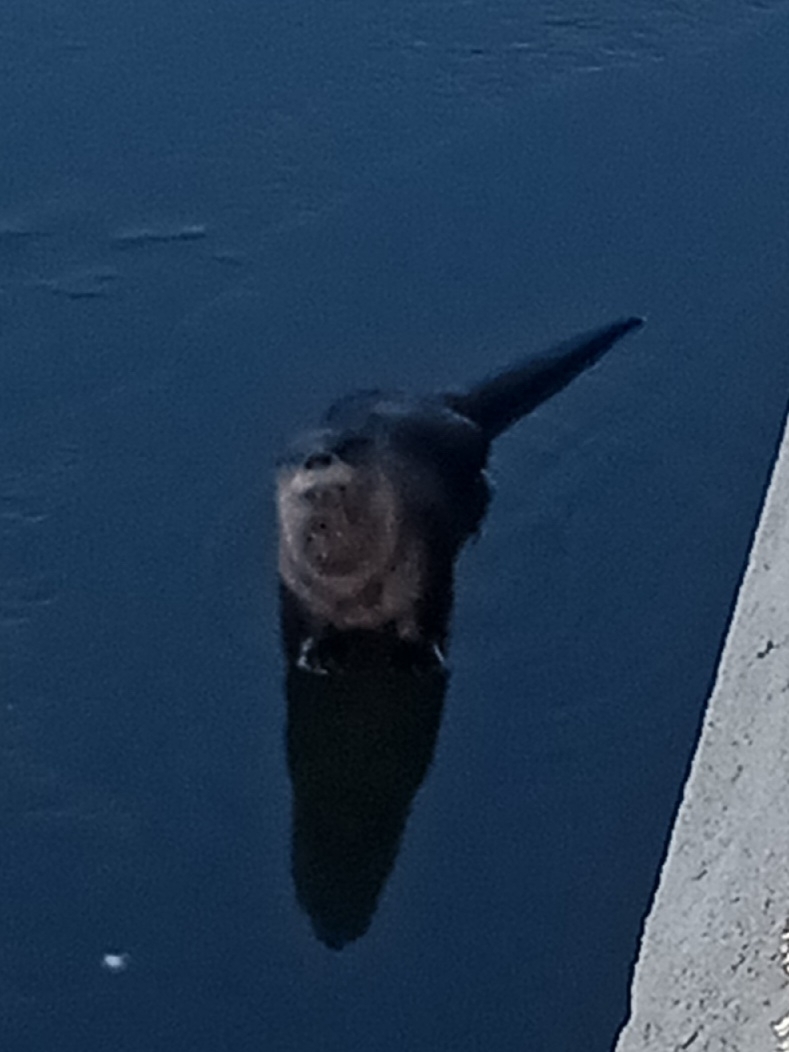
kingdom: Animalia
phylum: Chordata
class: Mammalia
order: Carnivora
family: Mustelidae
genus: Lontra
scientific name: Lontra canadensis
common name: North american river otter
